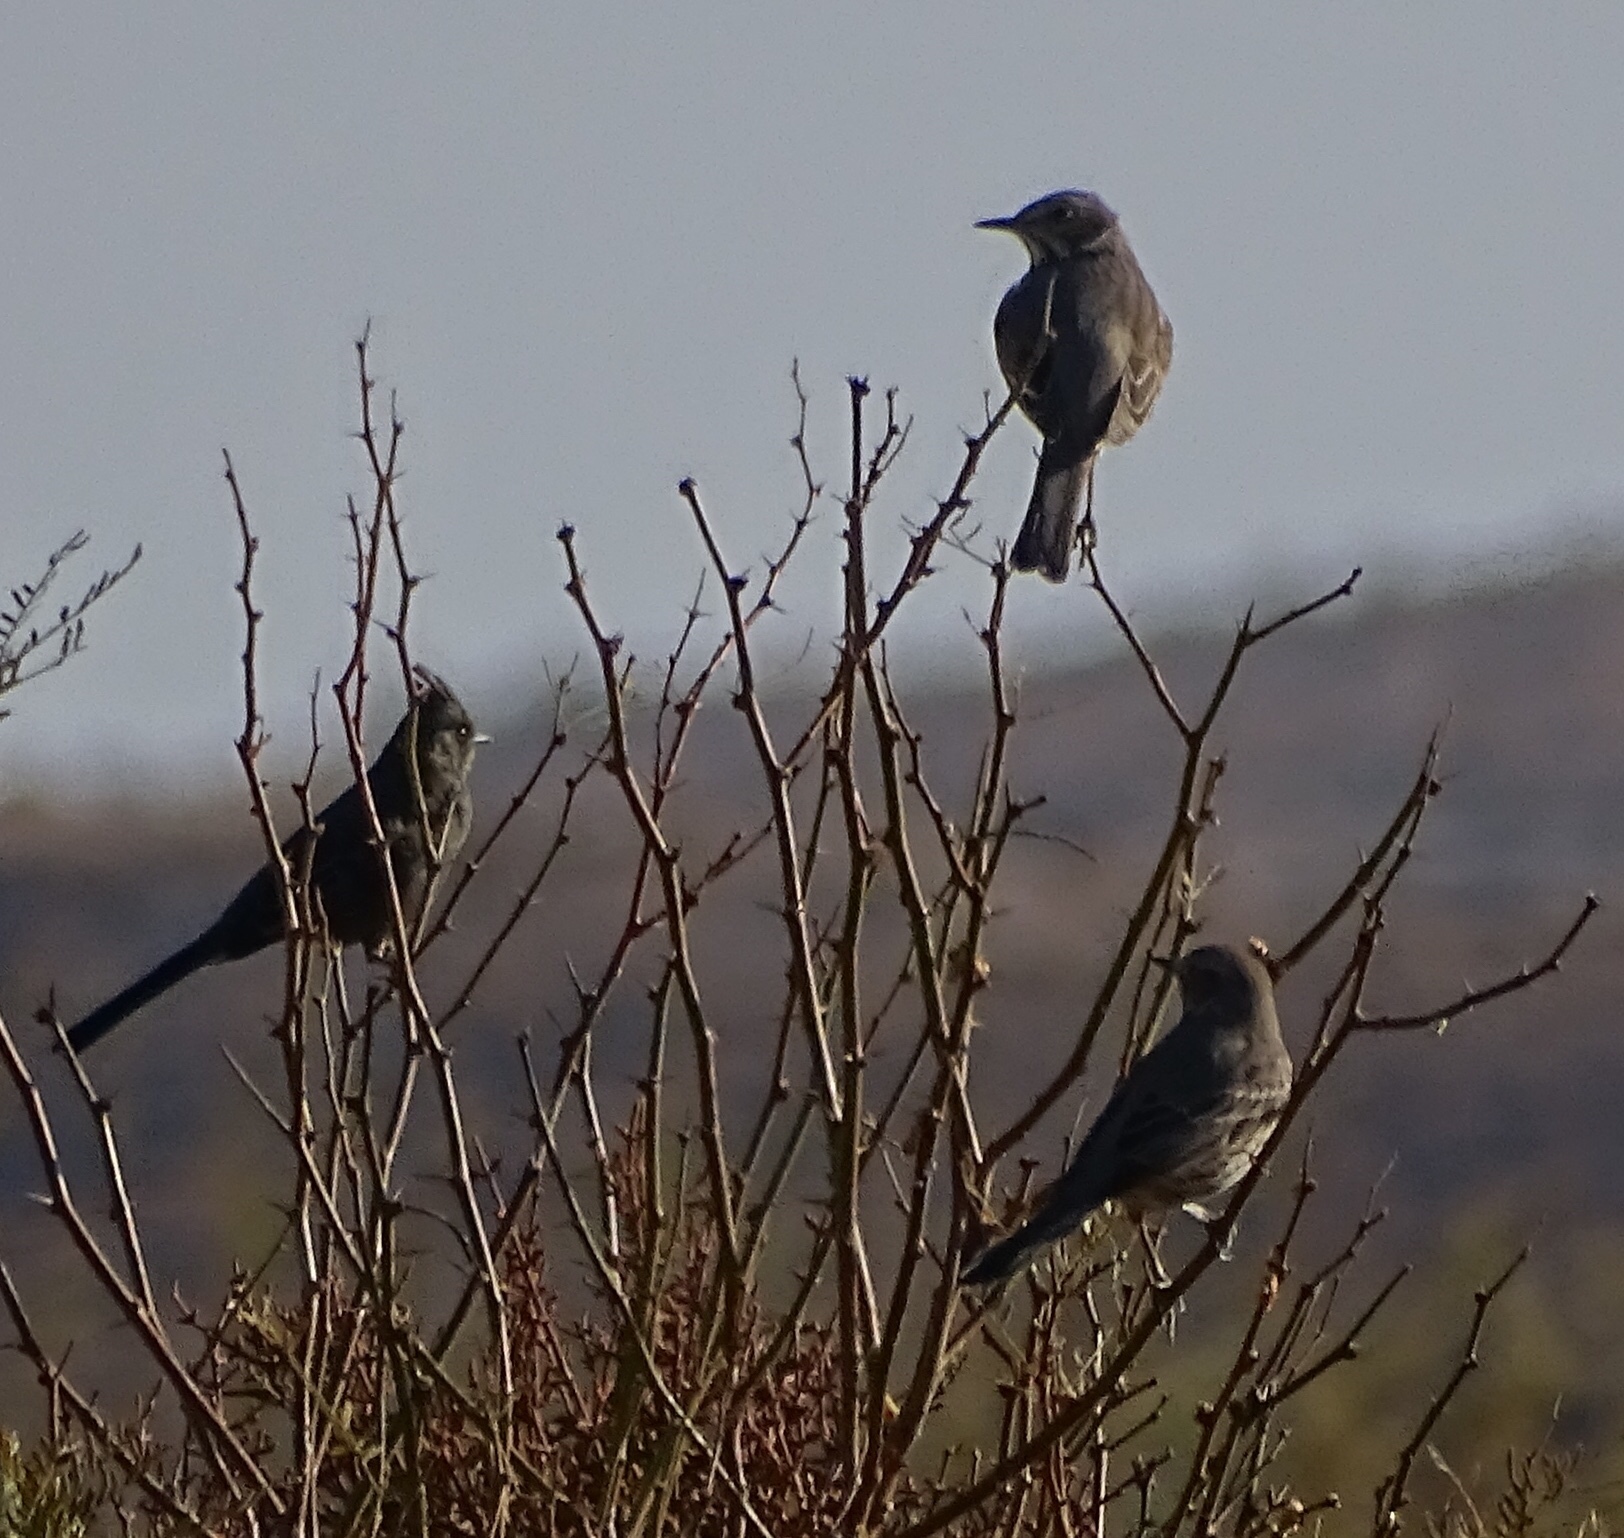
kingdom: Animalia
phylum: Chordata
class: Aves
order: Passeriformes
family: Mimidae
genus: Oreoscoptes
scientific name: Oreoscoptes montanus
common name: Sage thrasher
